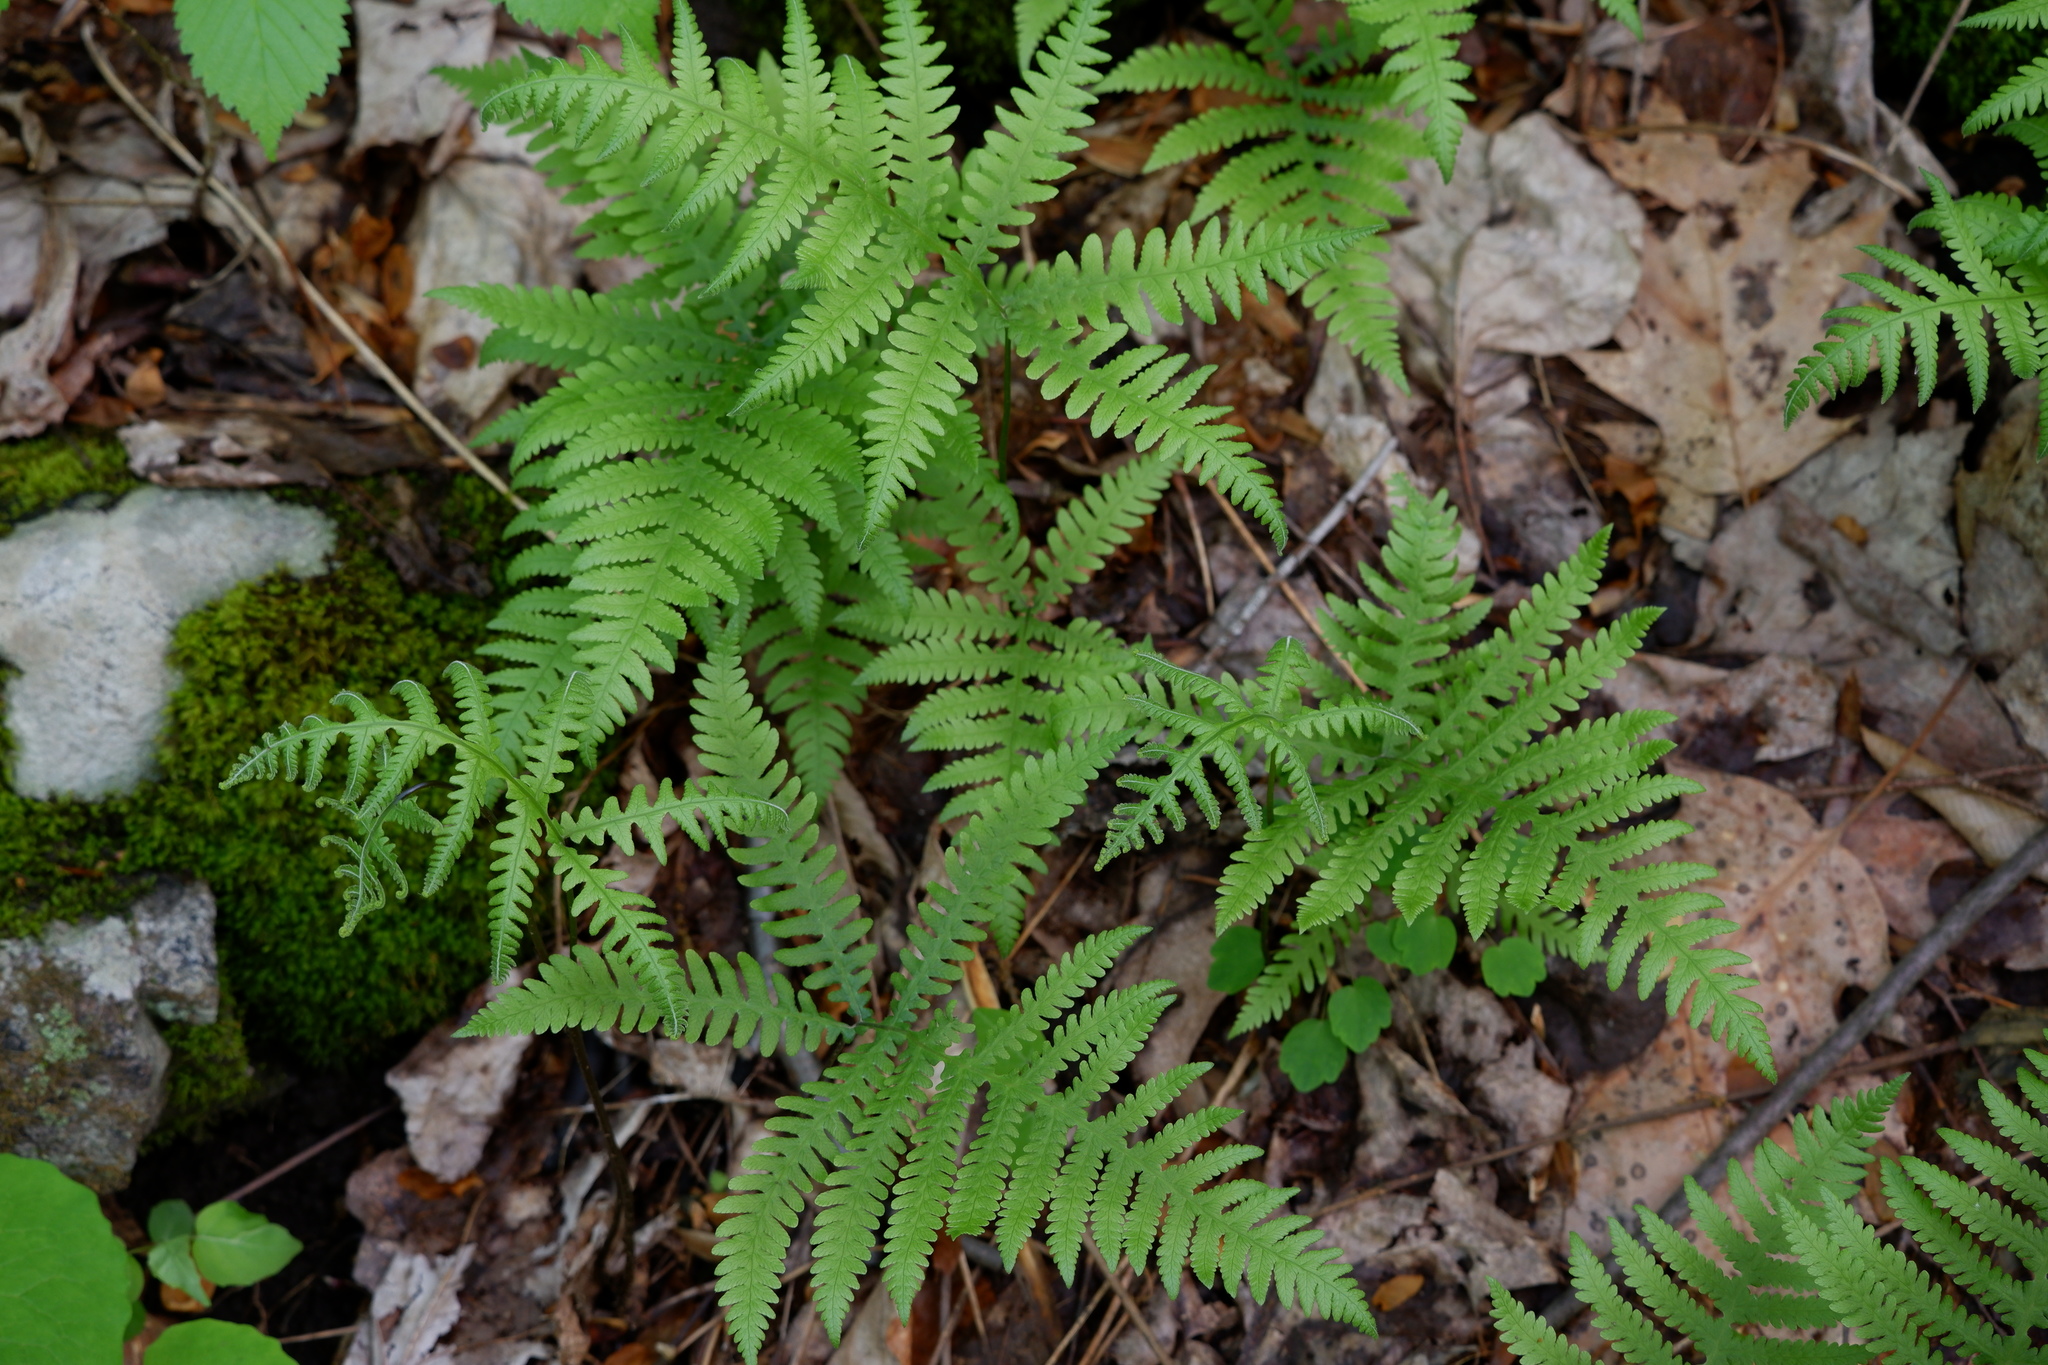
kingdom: Plantae
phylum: Tracheophyta
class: Polypodiopsida
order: Polypodiales
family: Thelypteridaceae
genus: Phegopteris
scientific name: Phegopteris hexagonoptera
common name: Broad beech fern
